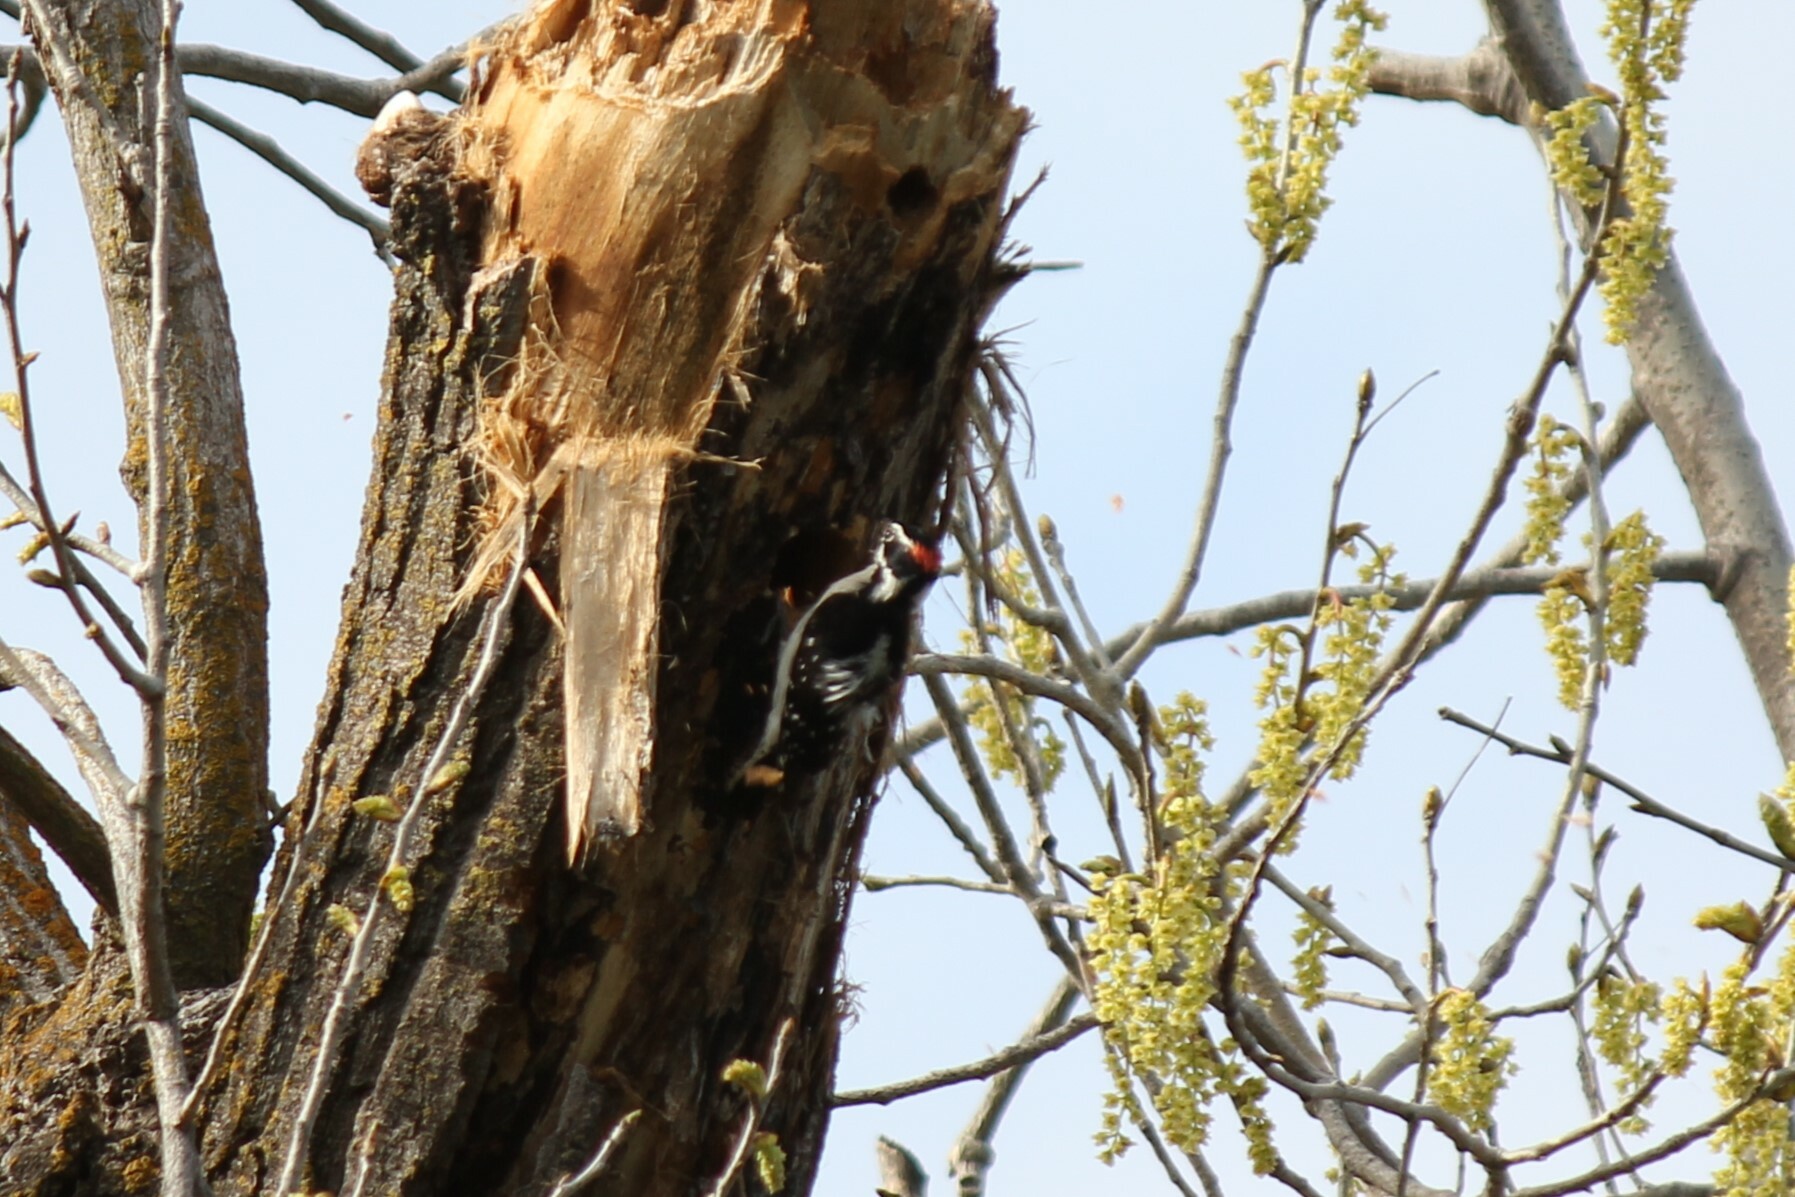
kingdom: Animalia
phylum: Chordata
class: Aves
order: Piciformes
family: Picidae
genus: Dryobates
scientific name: Dryobates pubescens
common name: Downy woodpecker
